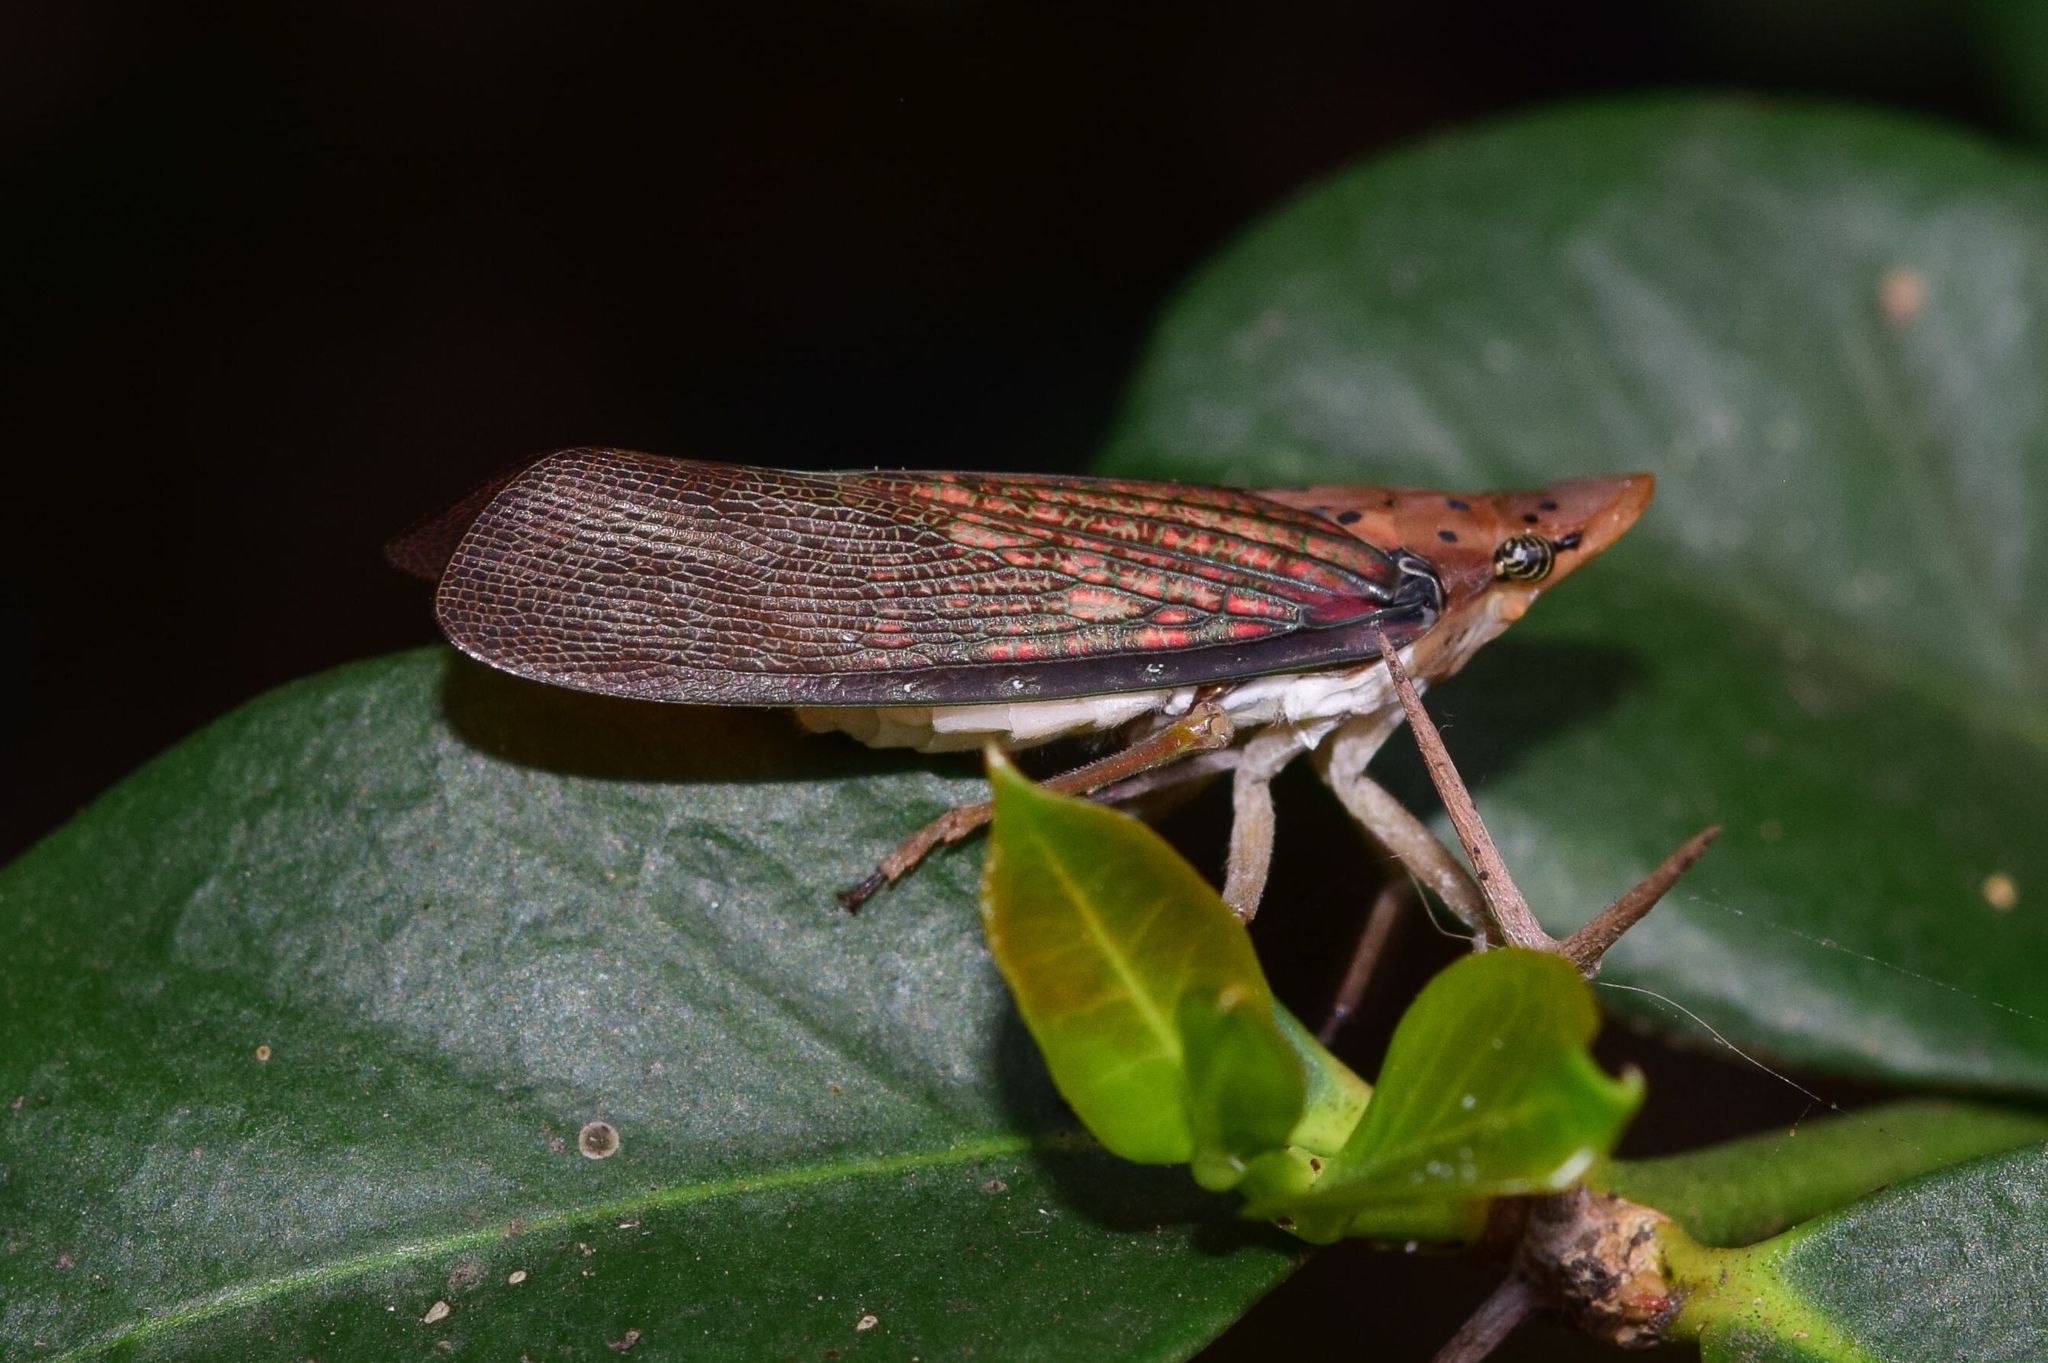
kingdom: Animalia
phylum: Arthropoda
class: Insecta
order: Hemiptera
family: Fulgoridae
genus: Xosophara
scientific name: Xosophara guttata
